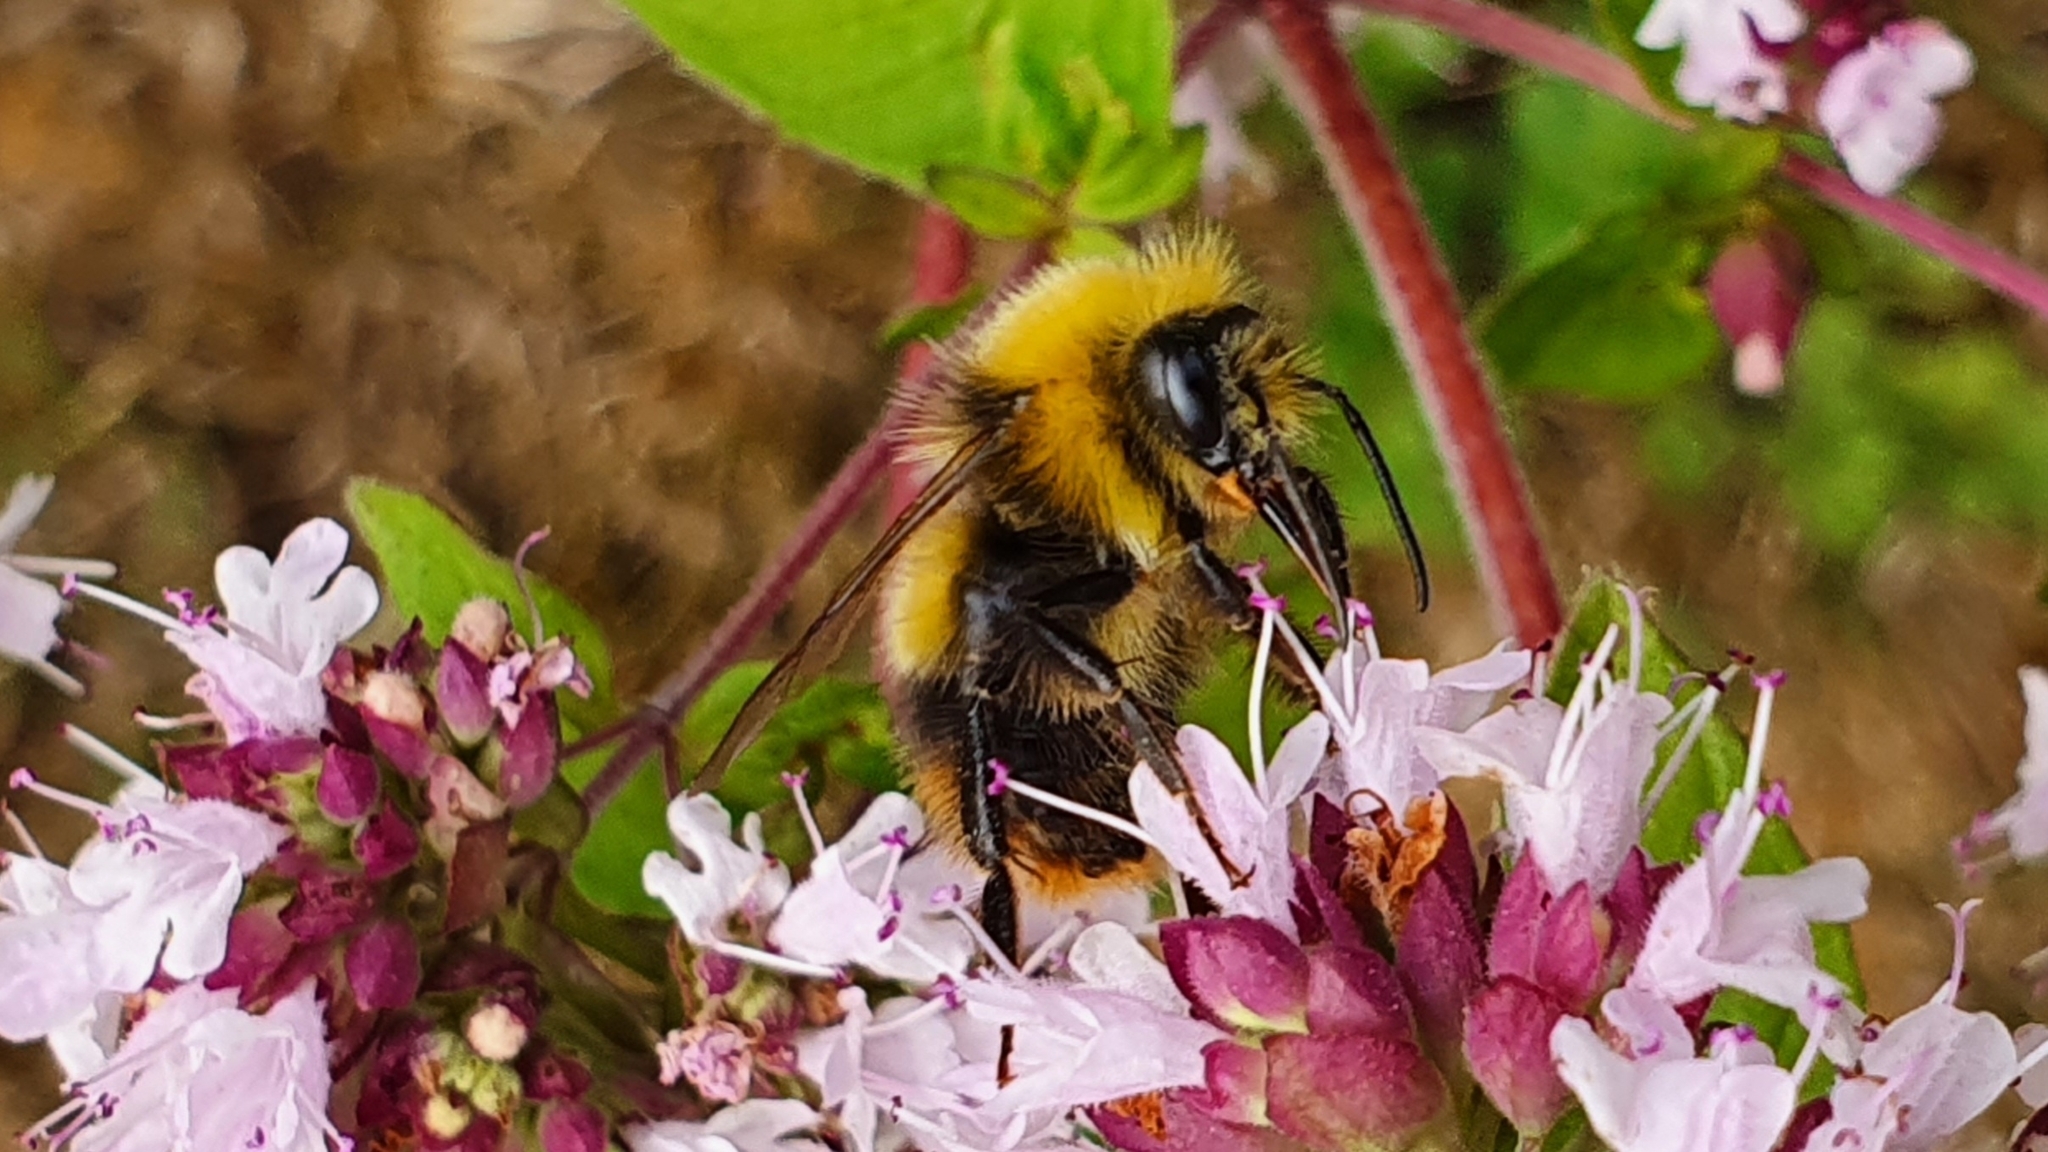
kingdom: Animalia
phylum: Arthropoda
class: Insecta
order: Hymenoptera
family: Apidae
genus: Bombus
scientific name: Bombus pratorum
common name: Early humble-bee
